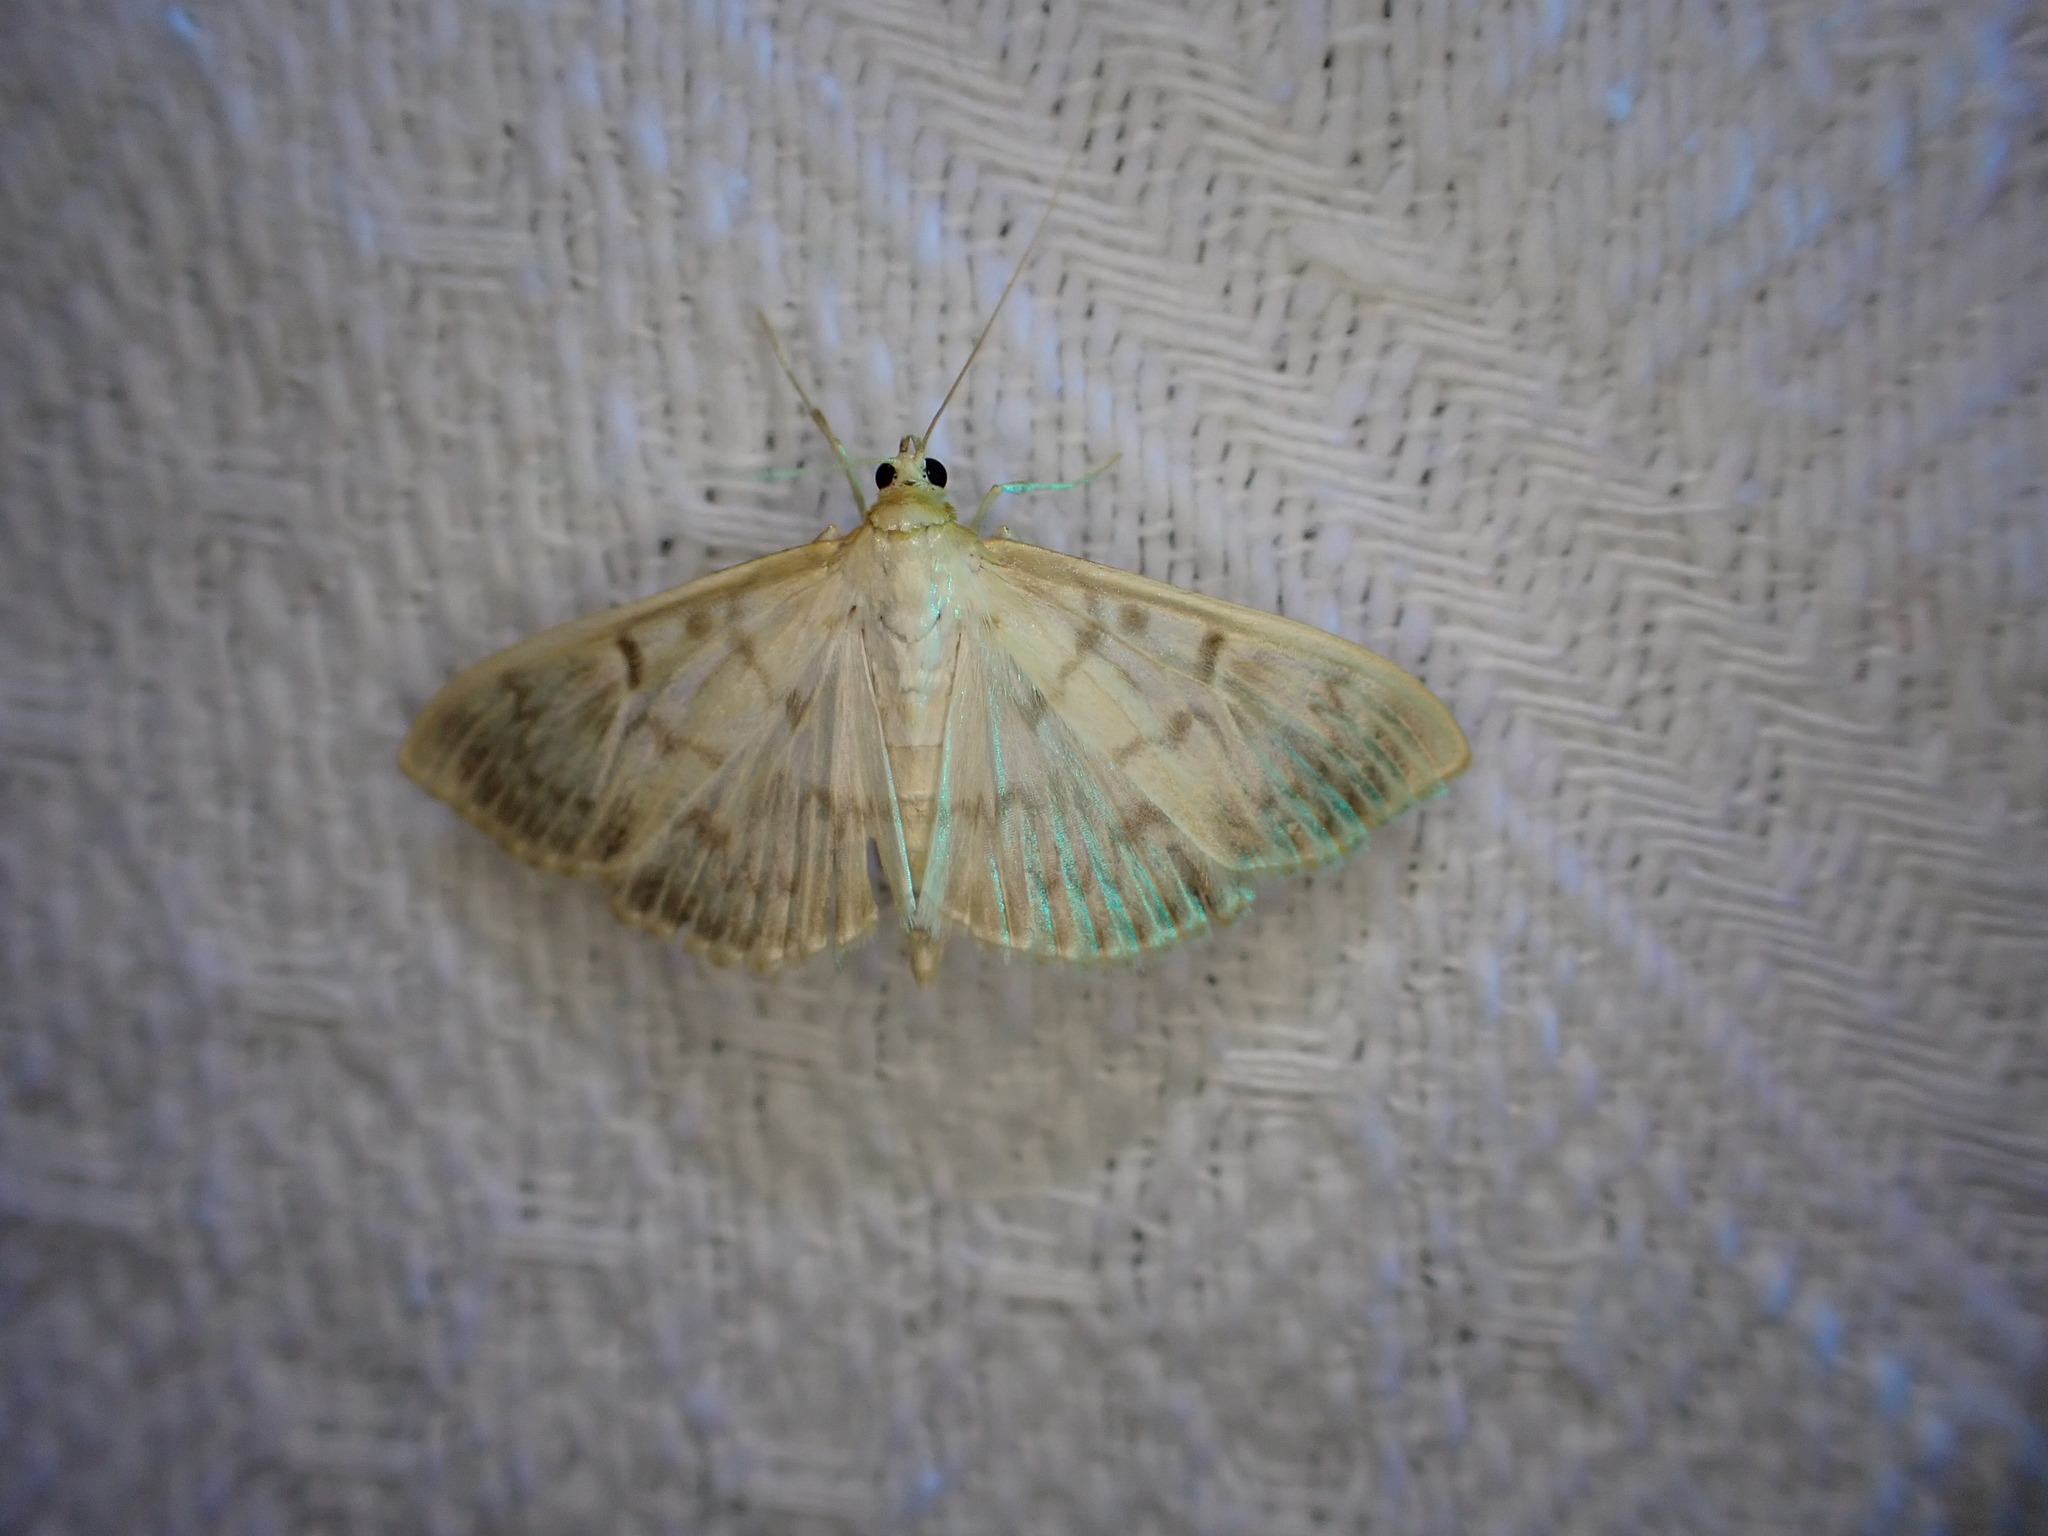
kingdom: Animalia
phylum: Arthropoda
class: Insecta
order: Lepidoptera
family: Crambidae
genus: Patania
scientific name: Patania ruralis
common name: Mother of pearl
